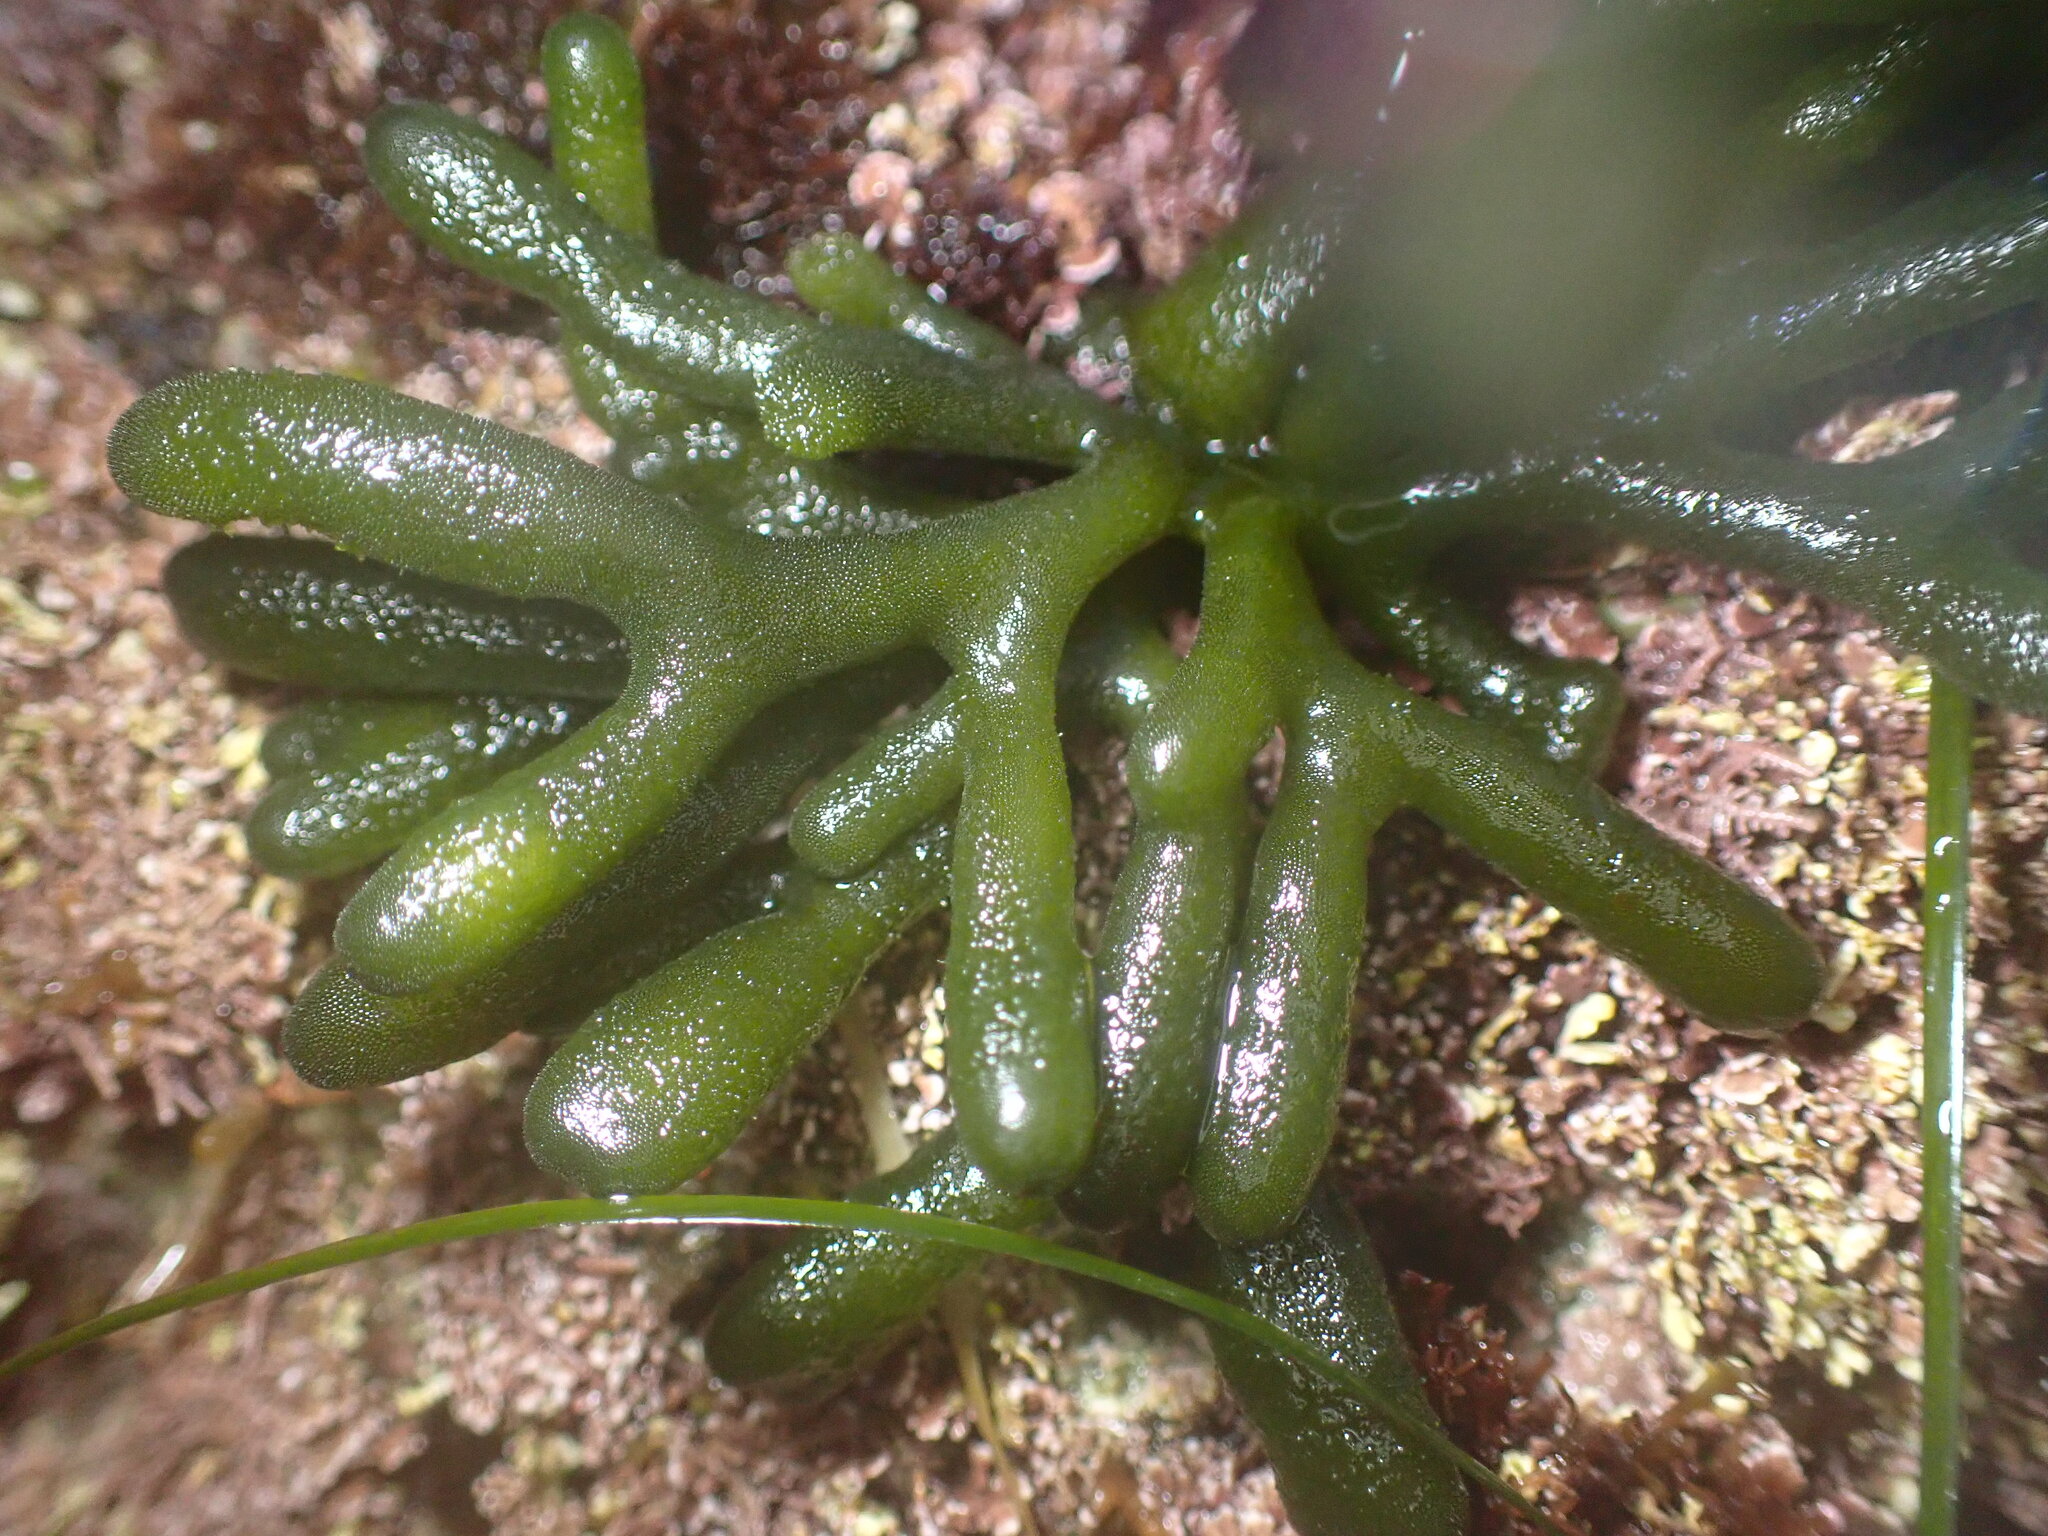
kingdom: Plantae
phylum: Chlorophyta
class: Ulvophyceae
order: Bryopsidales
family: Codiaceae
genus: Codium
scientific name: Codium fragile
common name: Dead man's fingers
